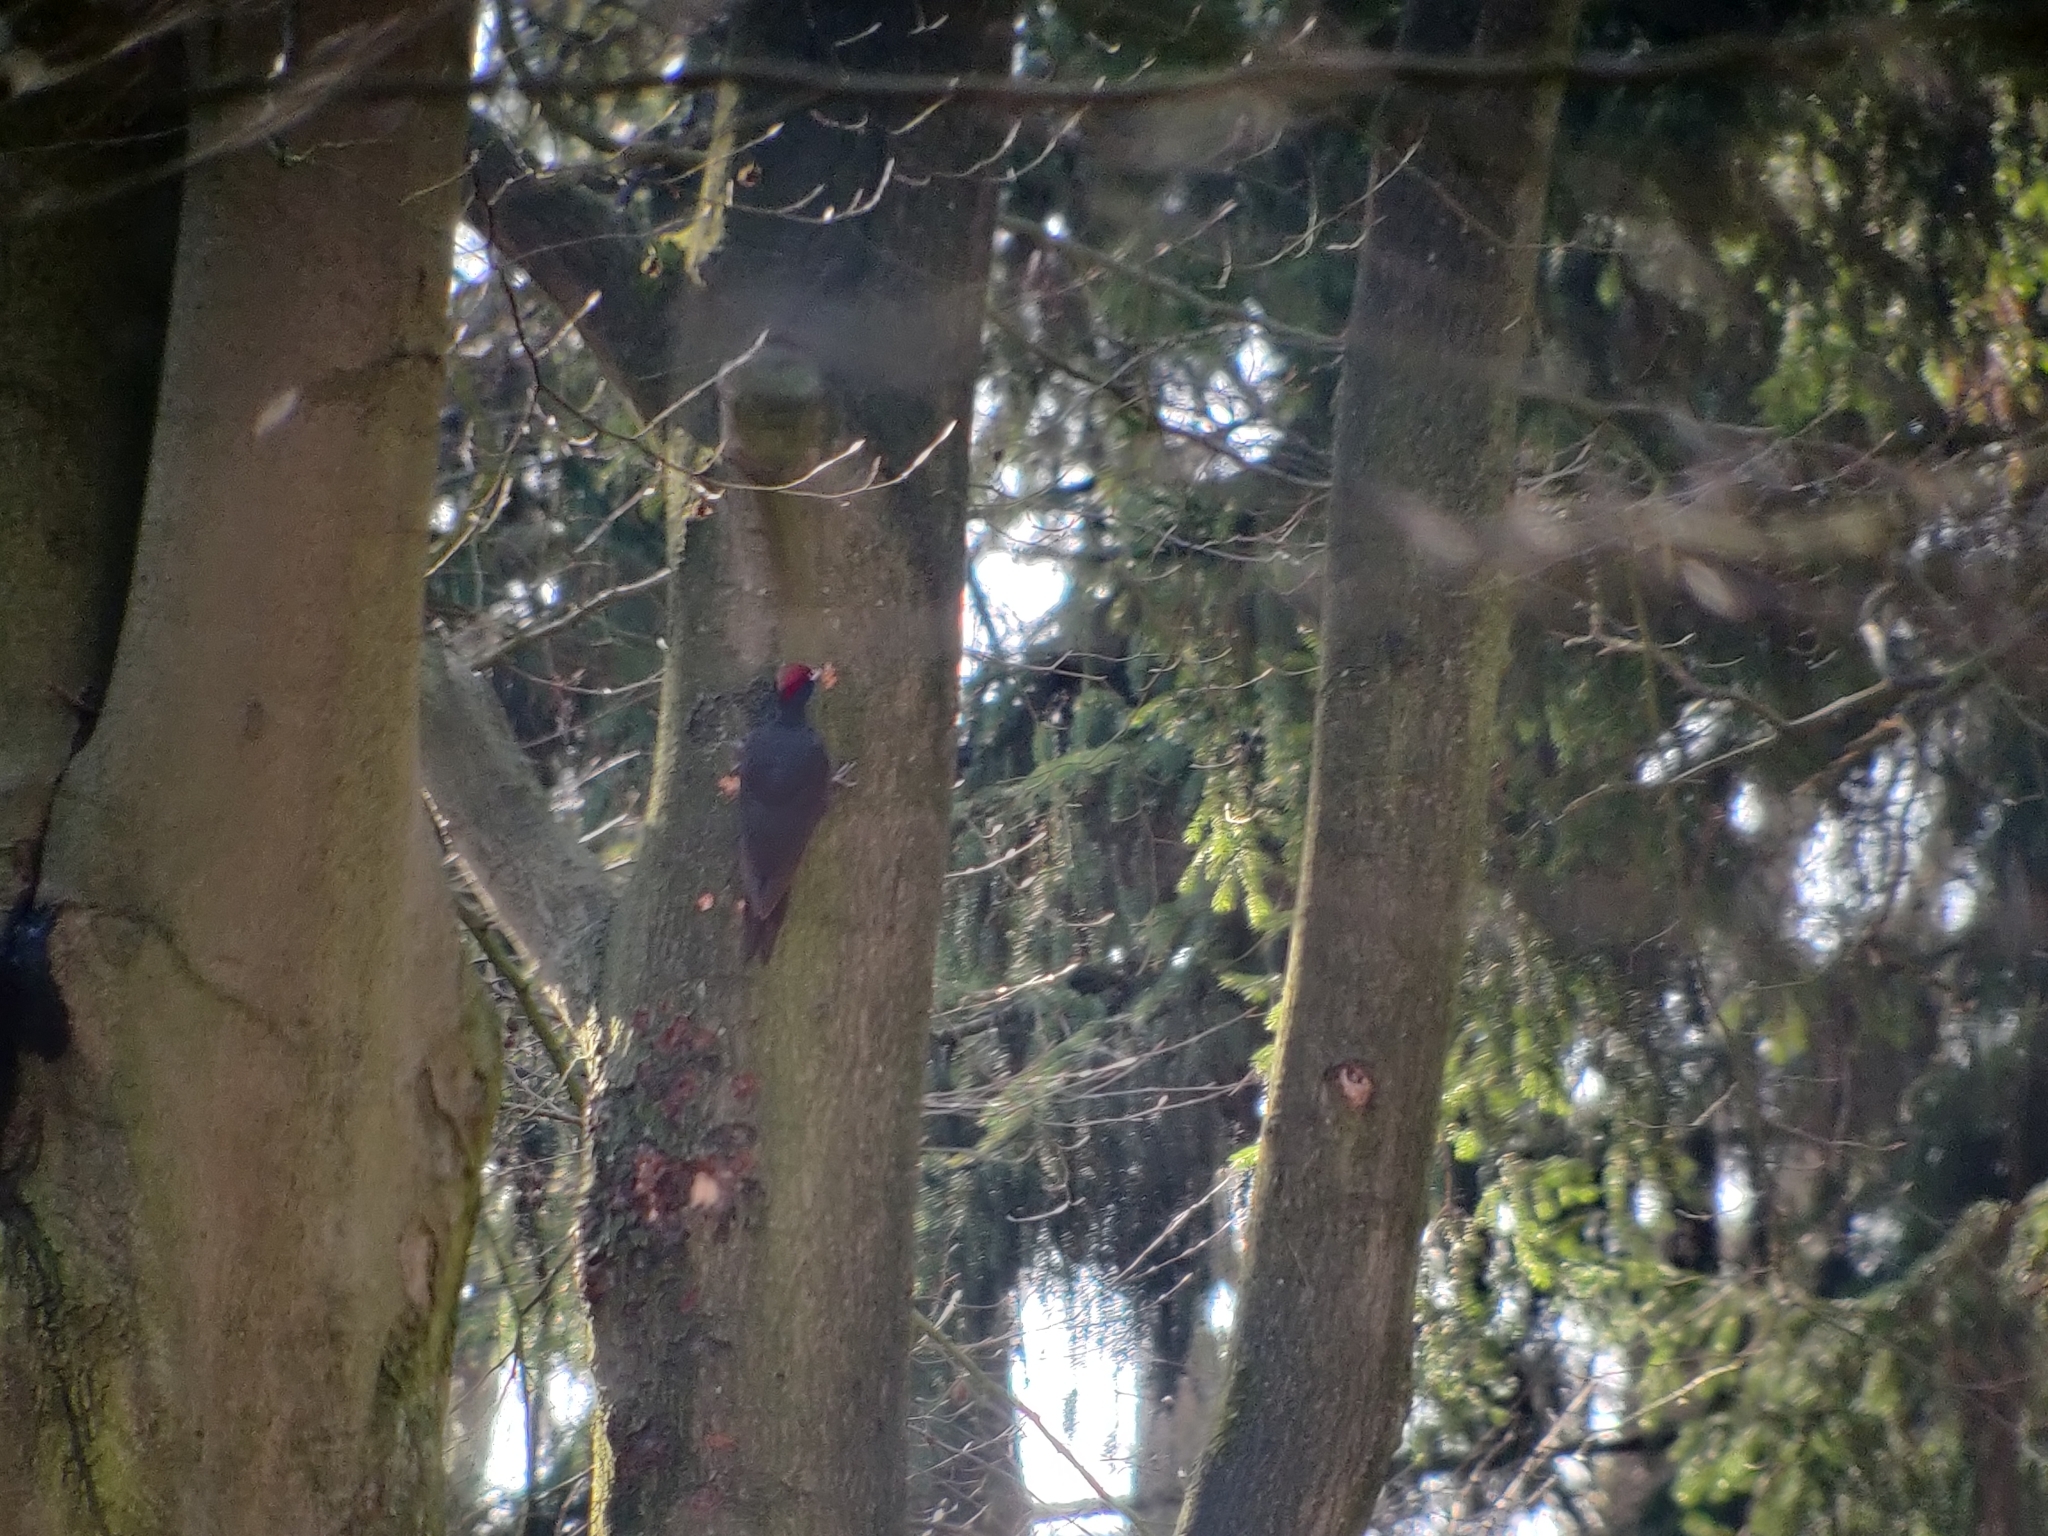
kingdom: Animalia
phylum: Chordata
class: Aves
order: Piciformes
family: Picidae
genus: Dryocopus
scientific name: Dryocopus martius
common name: Black woodpecker
